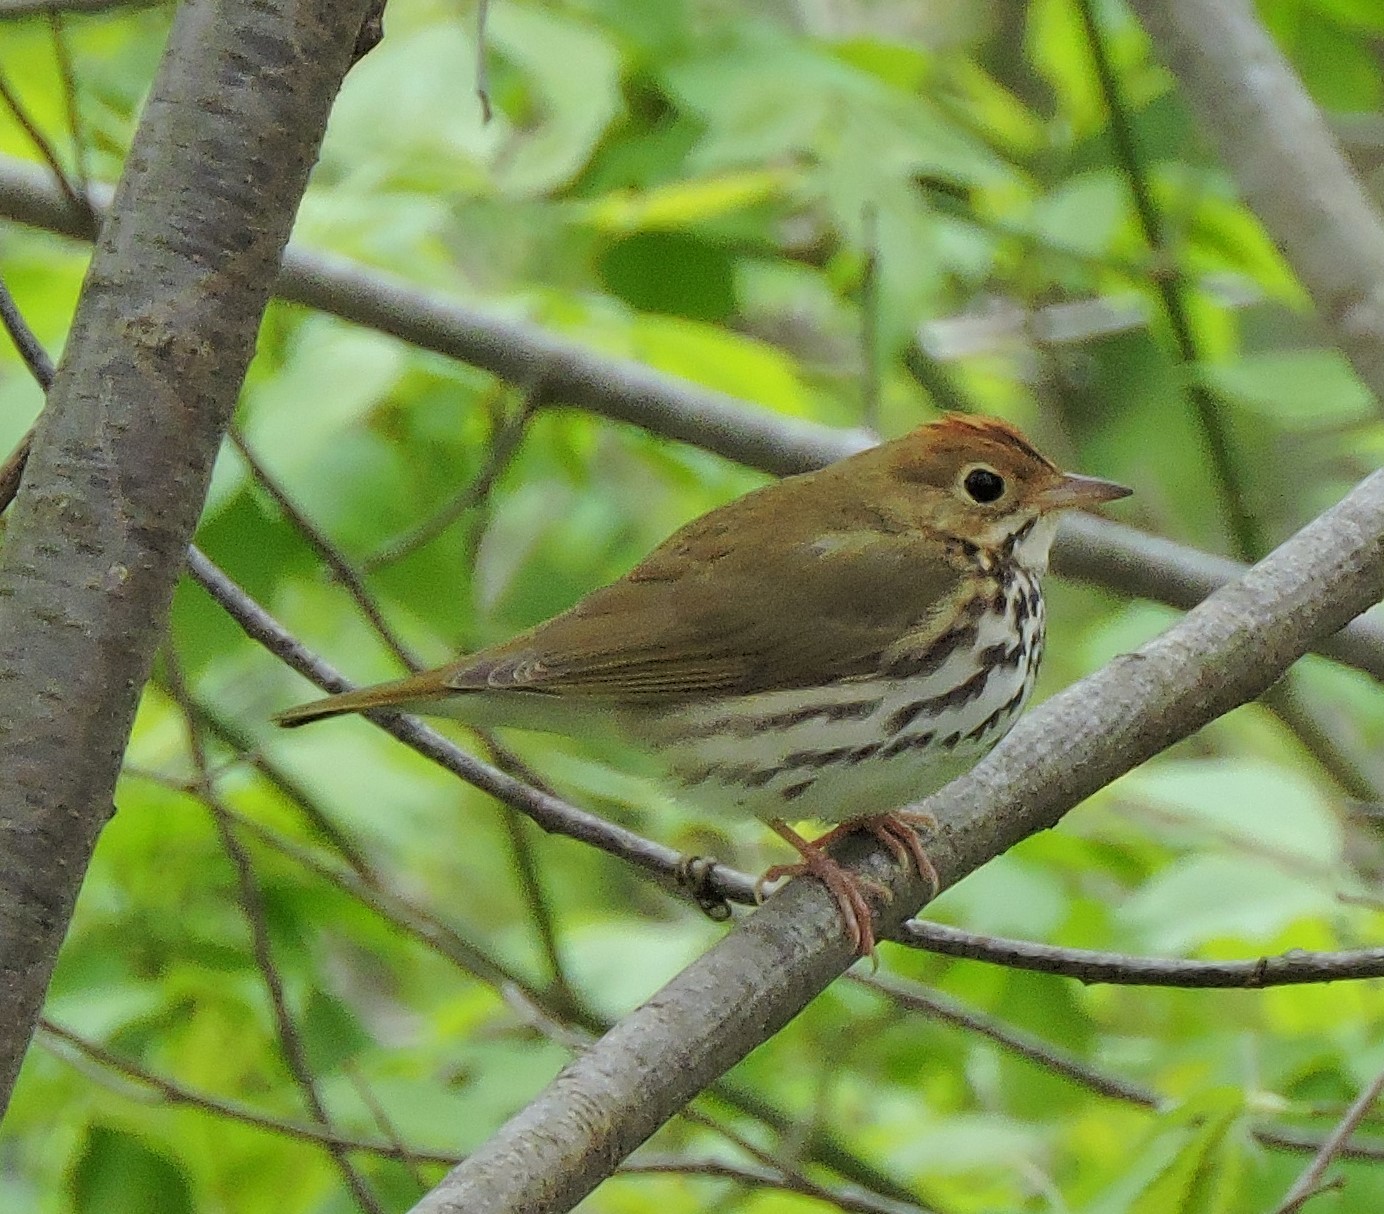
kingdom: Animalia
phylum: Chordata
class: Aves
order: Passeriformes
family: Parulidae
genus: Seiurus
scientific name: Seiurus aurocapilla
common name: Ovenbird
